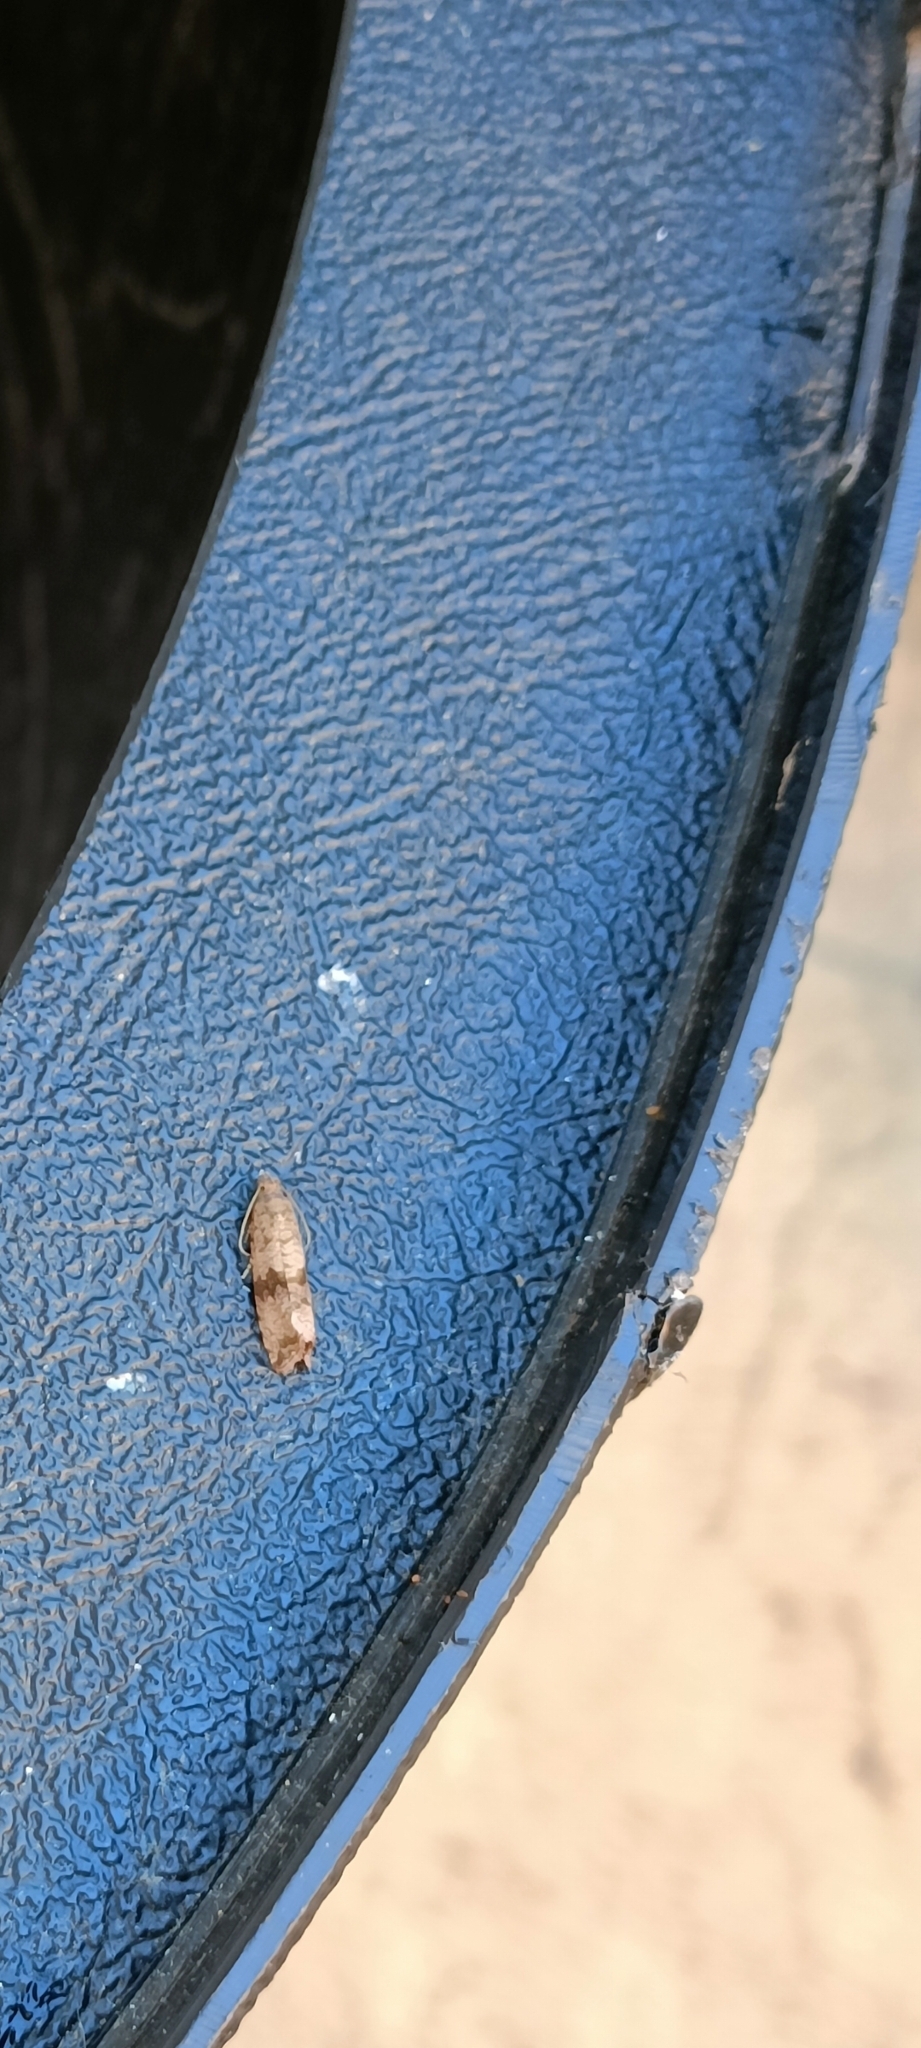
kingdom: Animalia
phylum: Arthropoda
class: Insecta
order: Lepidoptera
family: Tortricidae
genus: Celypha
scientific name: Celypha striana
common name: Barred marble
